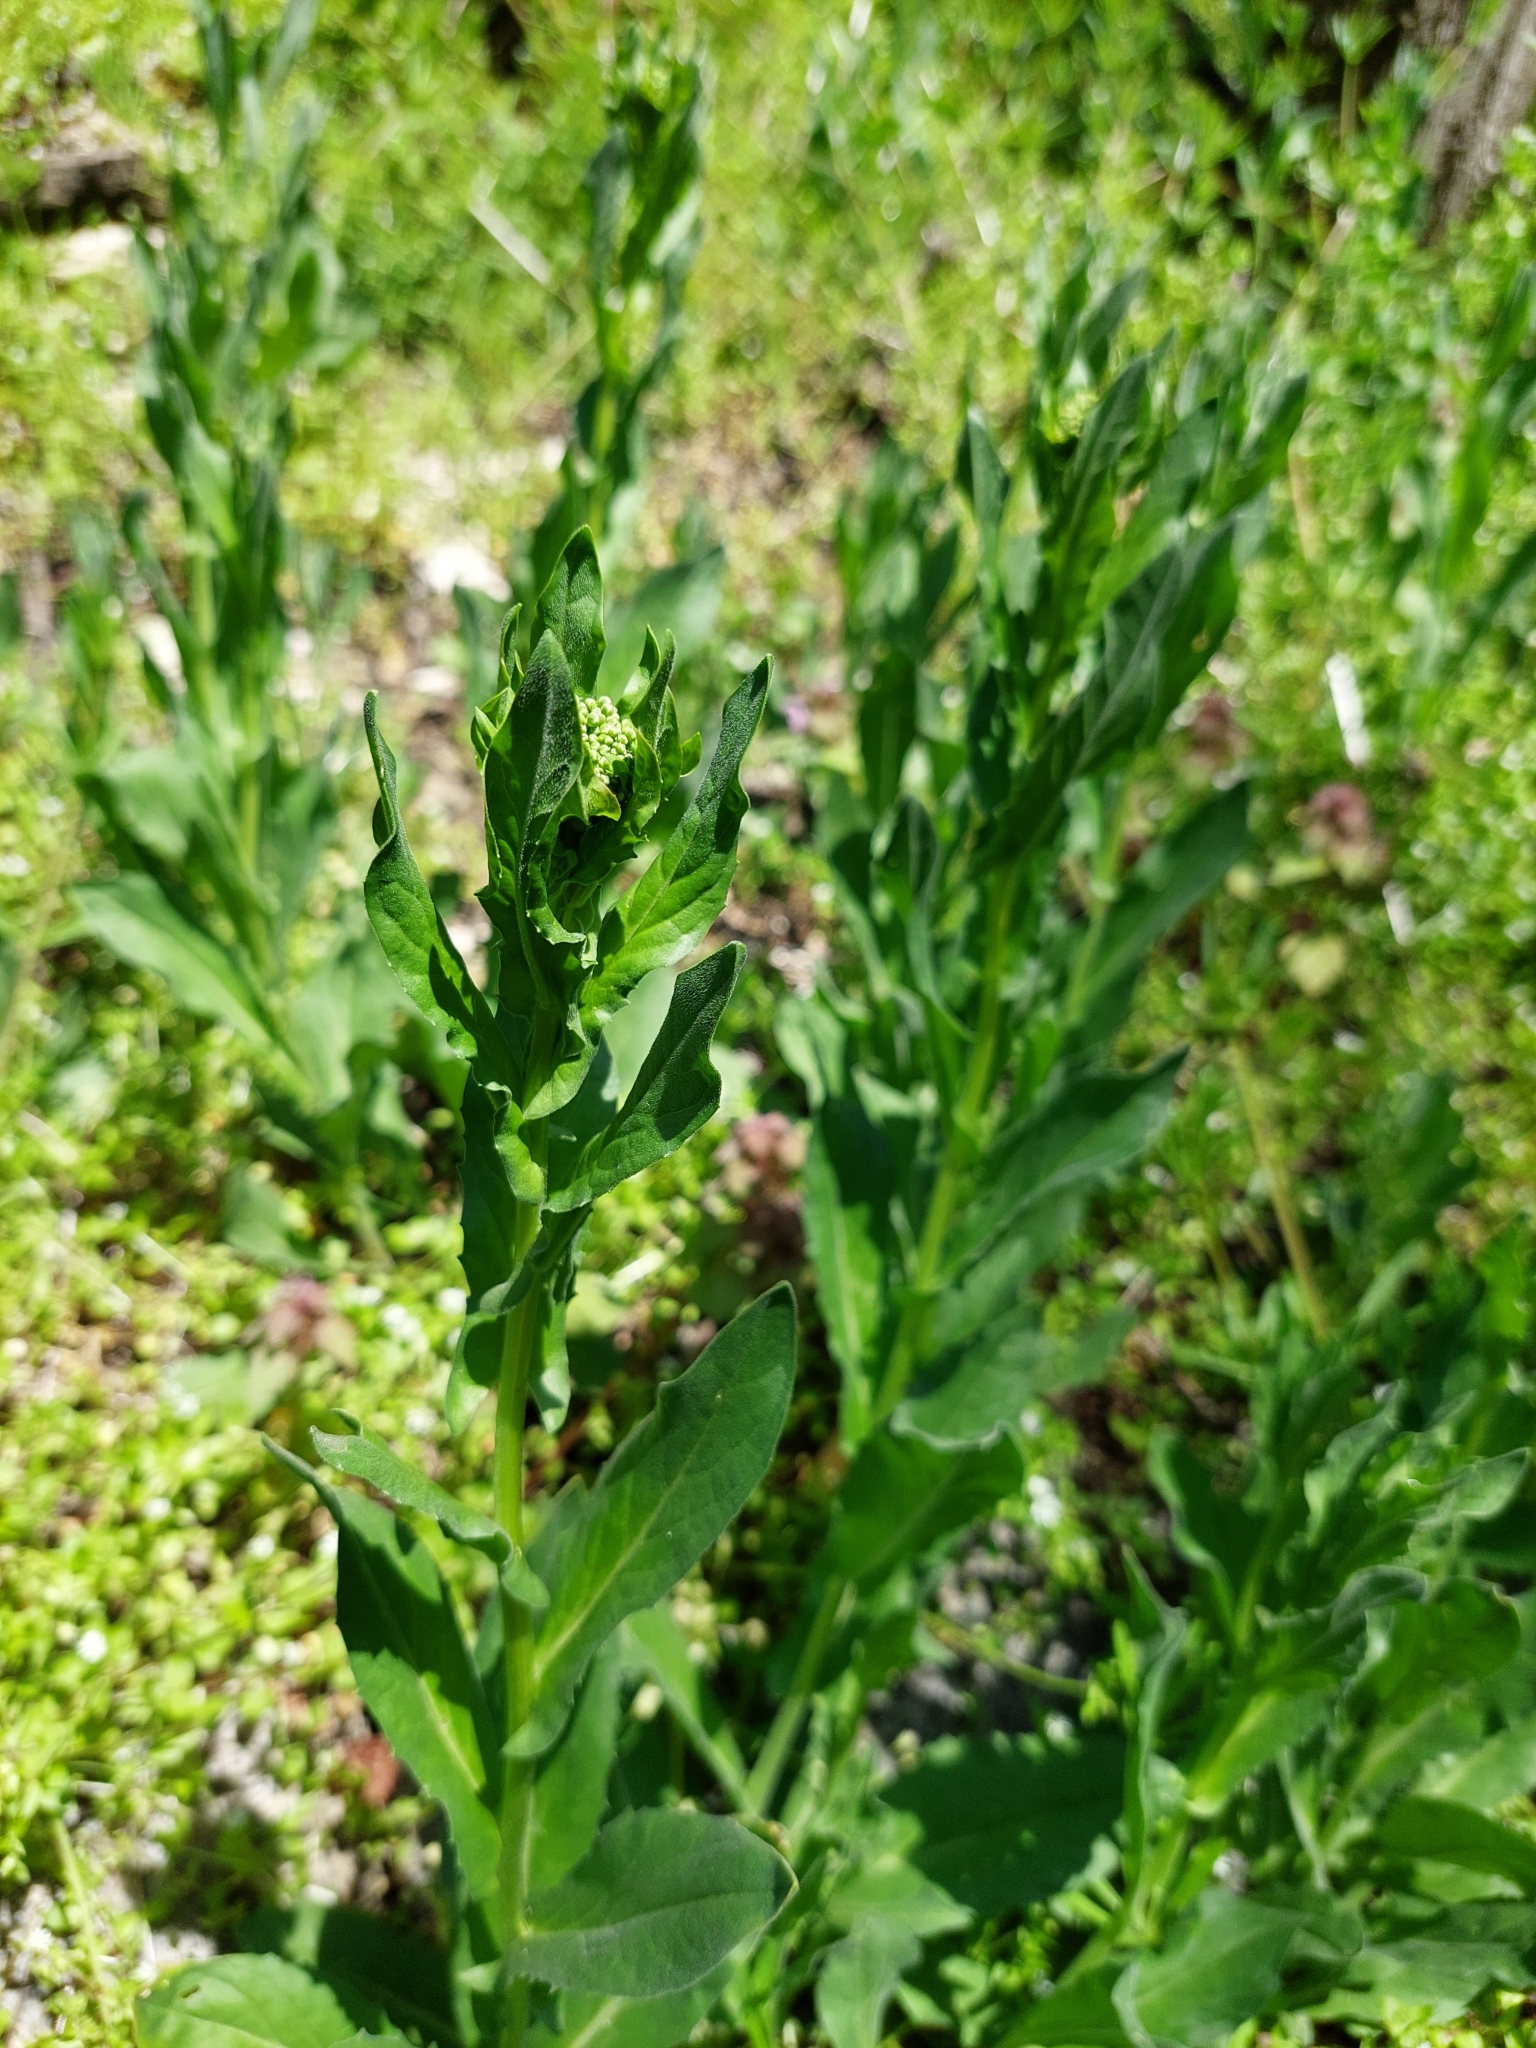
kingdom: Plantae
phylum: Tracheophyta
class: Magnoliopsida
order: Brassicales
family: Brassicaceae
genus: Lepidium
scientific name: Lepidium draba
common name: Hoary cress
